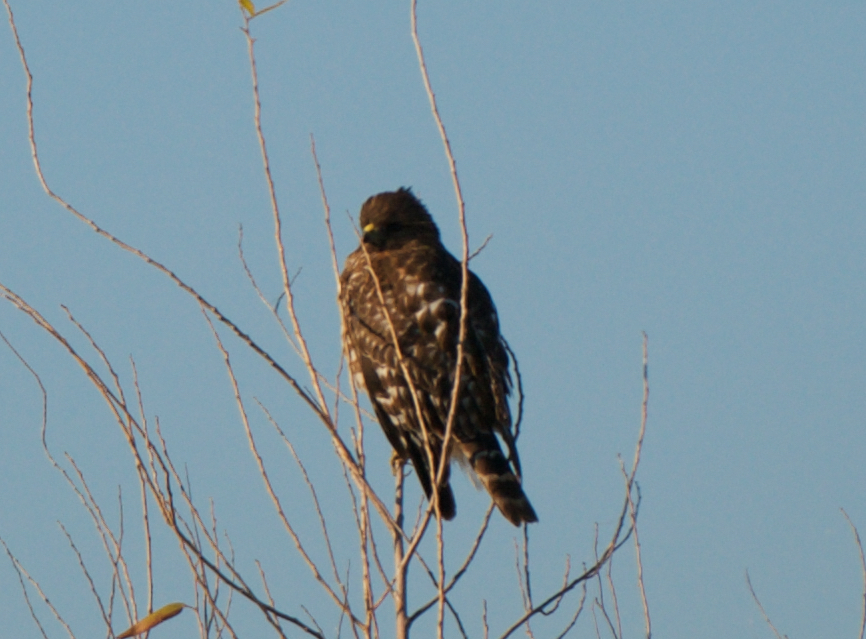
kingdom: Animalia
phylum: Chordata
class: Aves
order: Accipitriformes
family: Accipitridae
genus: Buteo
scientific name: Buteo lineatus
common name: Red-shouldered hawk
